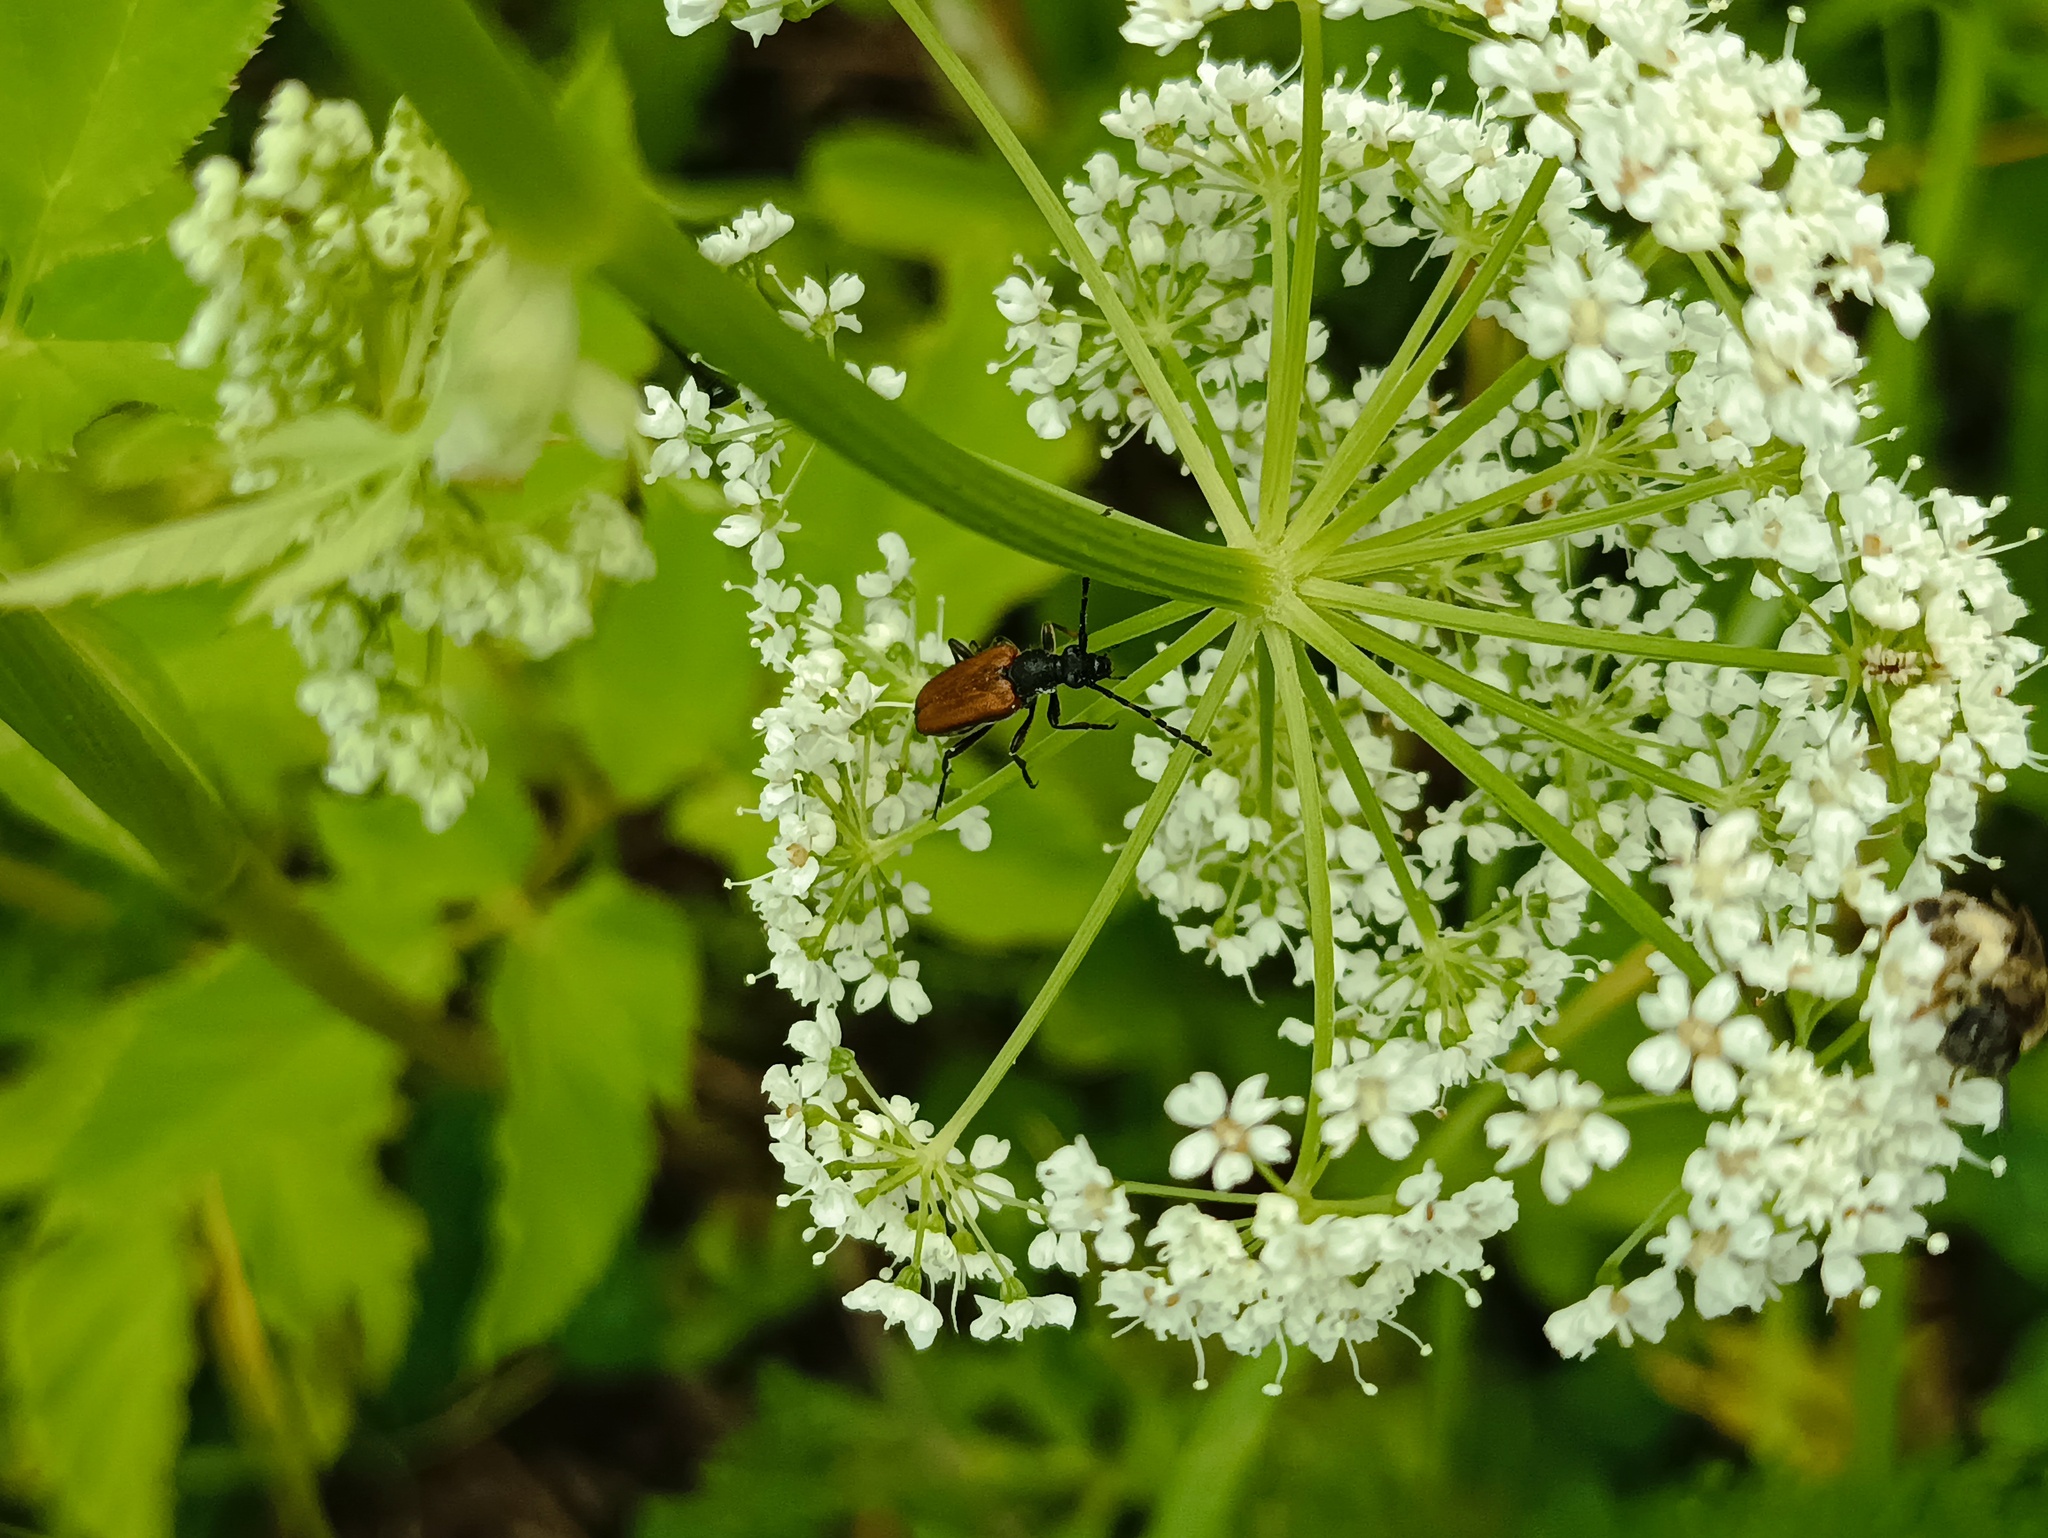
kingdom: Animalia
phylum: Arthropoda
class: Insecta
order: Coleoptera
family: Cerambycidae
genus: Paracorymbia
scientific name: Paracorymbia maculicornis
